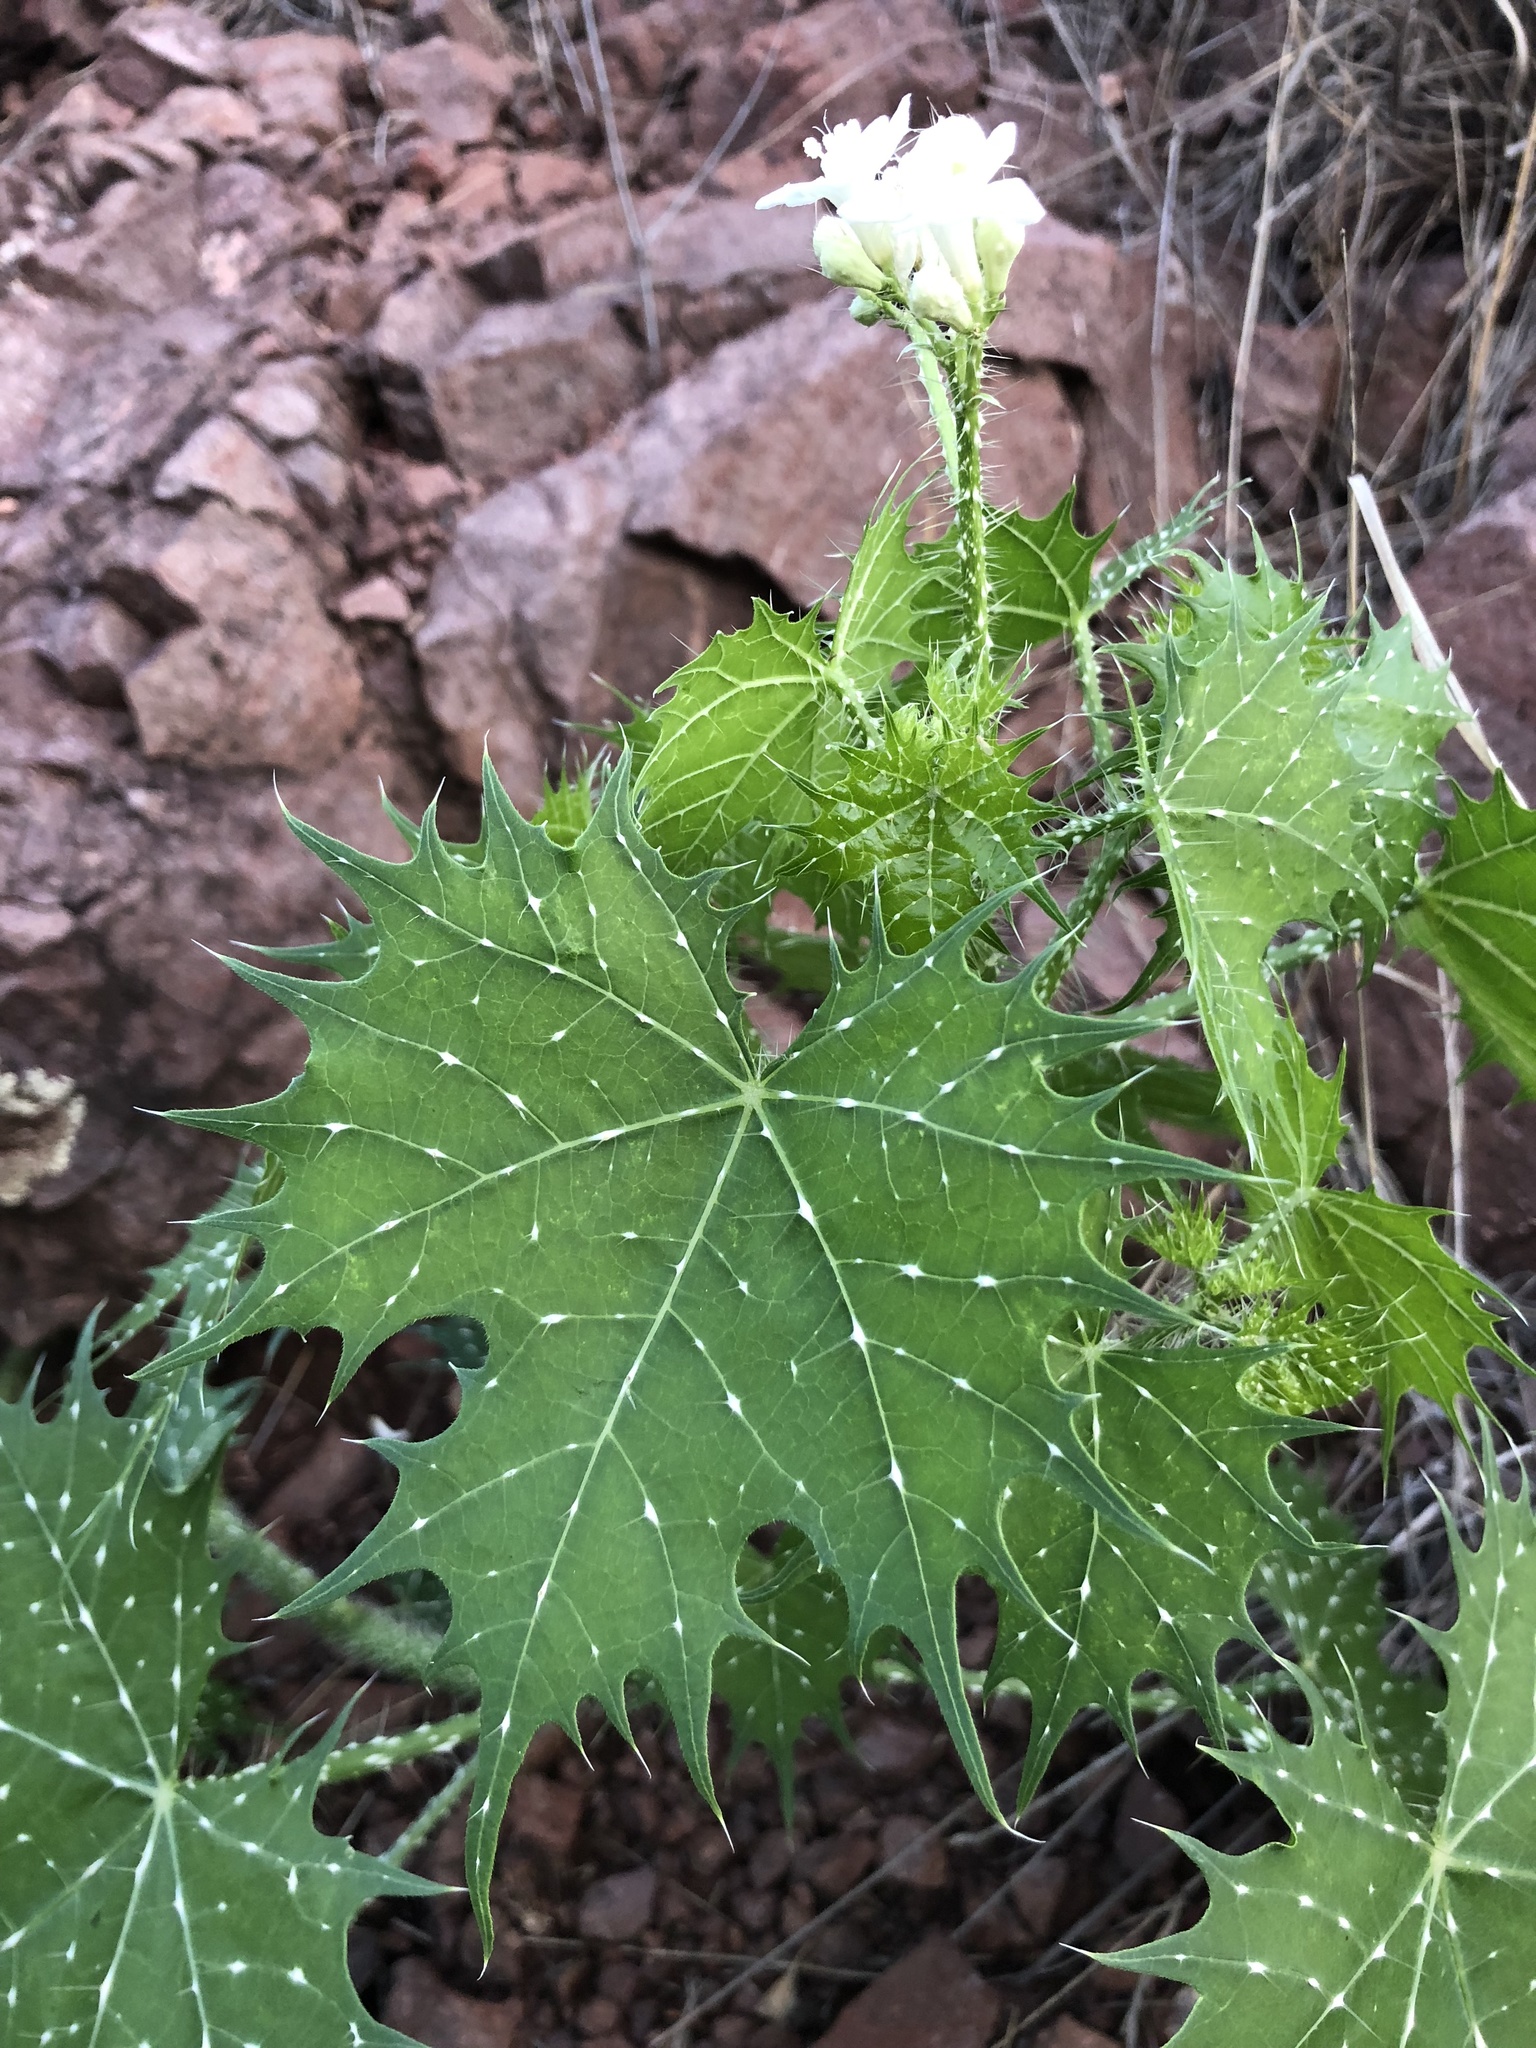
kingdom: Plantae
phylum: Tracheophyta
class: Magnoliopsida
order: Malpighiales
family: Euphorbiaceae
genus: Cnidoscolus
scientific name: Cnidoscolus angustidens
